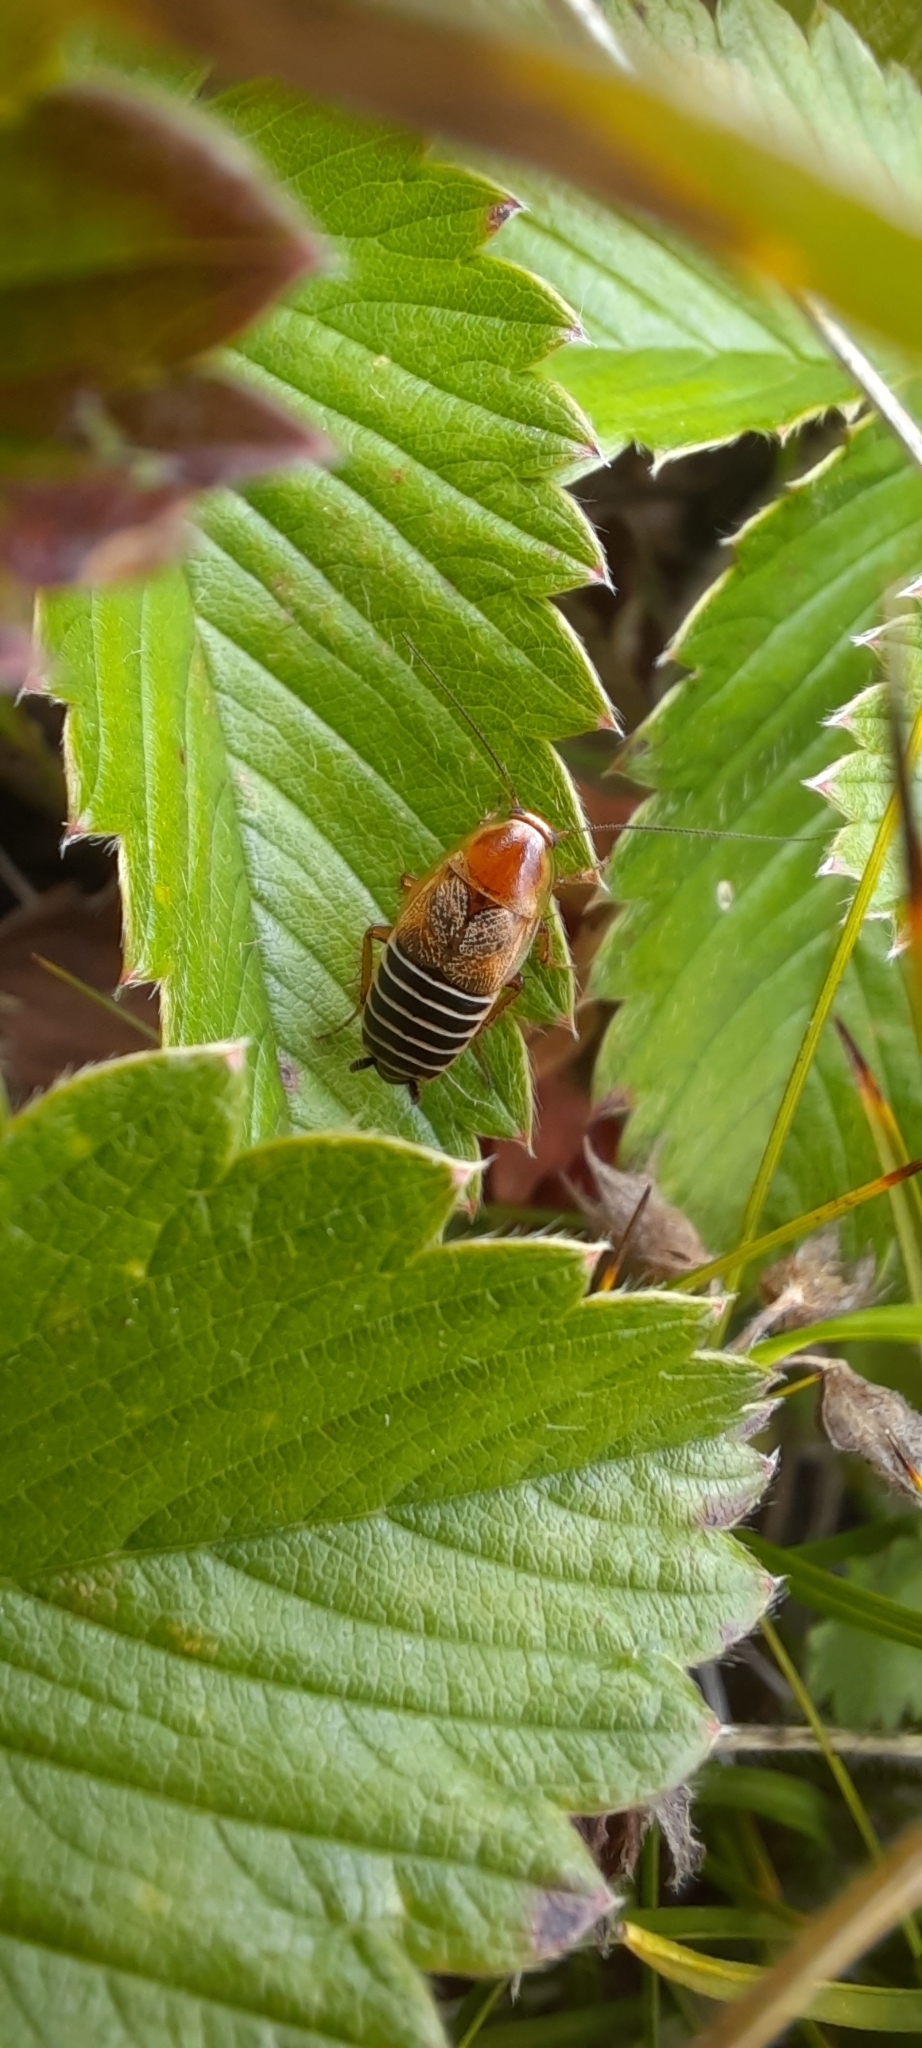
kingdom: Animalia
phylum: Arthropoda
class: Insecta
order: Blattodea
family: Ectobiidae
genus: Phyllodromica
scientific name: Phyllodromica polita
